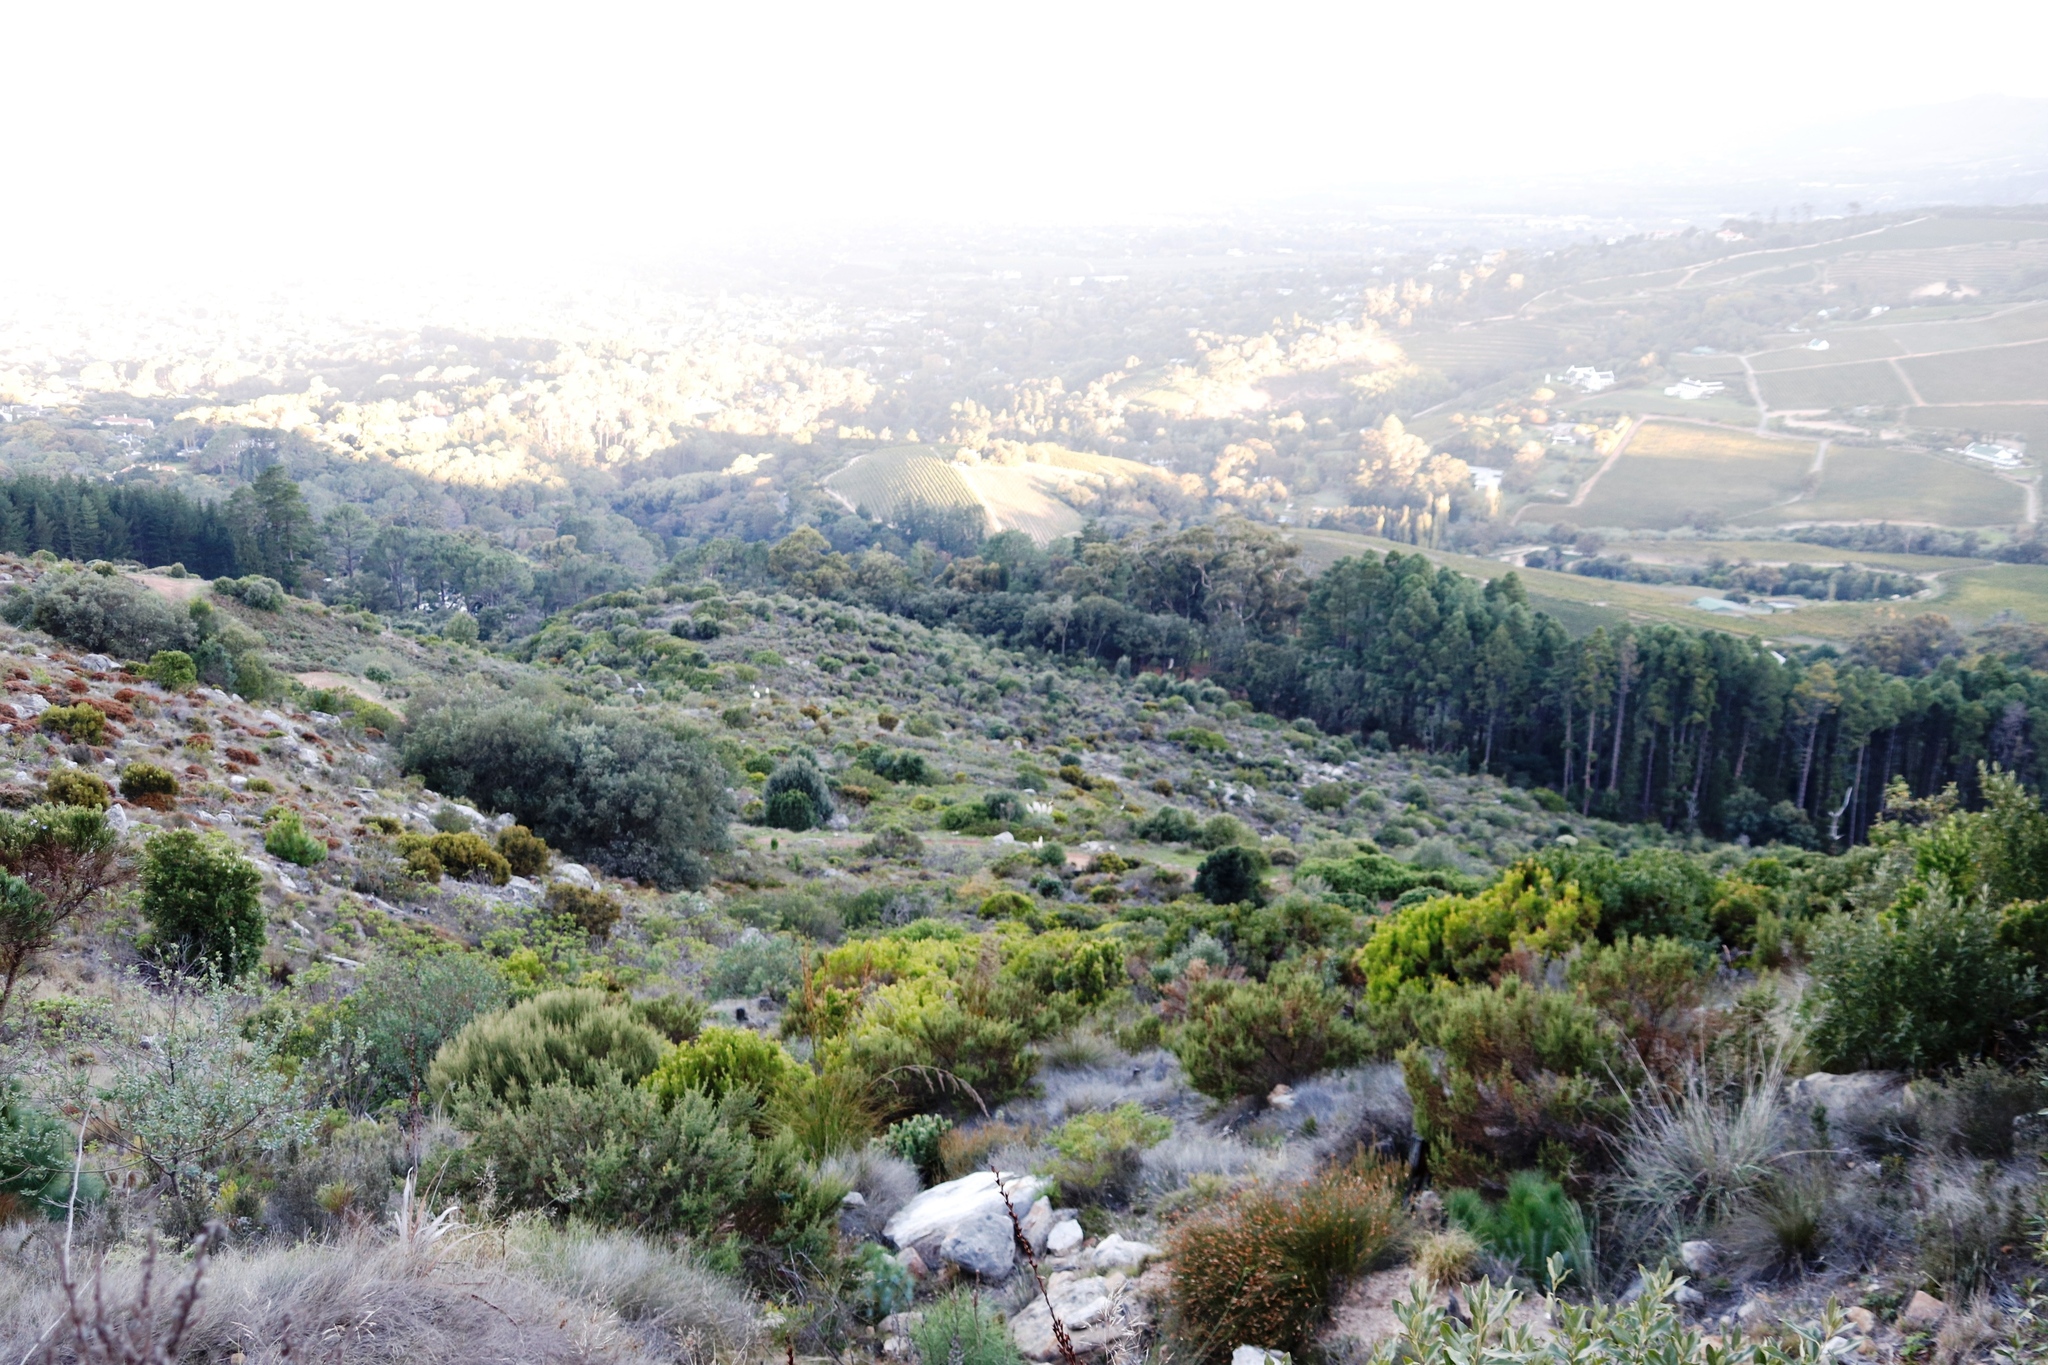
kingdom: Plantae
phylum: Tracheophyta
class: Liliopsida
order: Poales
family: Poaceae
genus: Cortaderia
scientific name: Cortaderia selloana
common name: Uruguayan pampas grass
